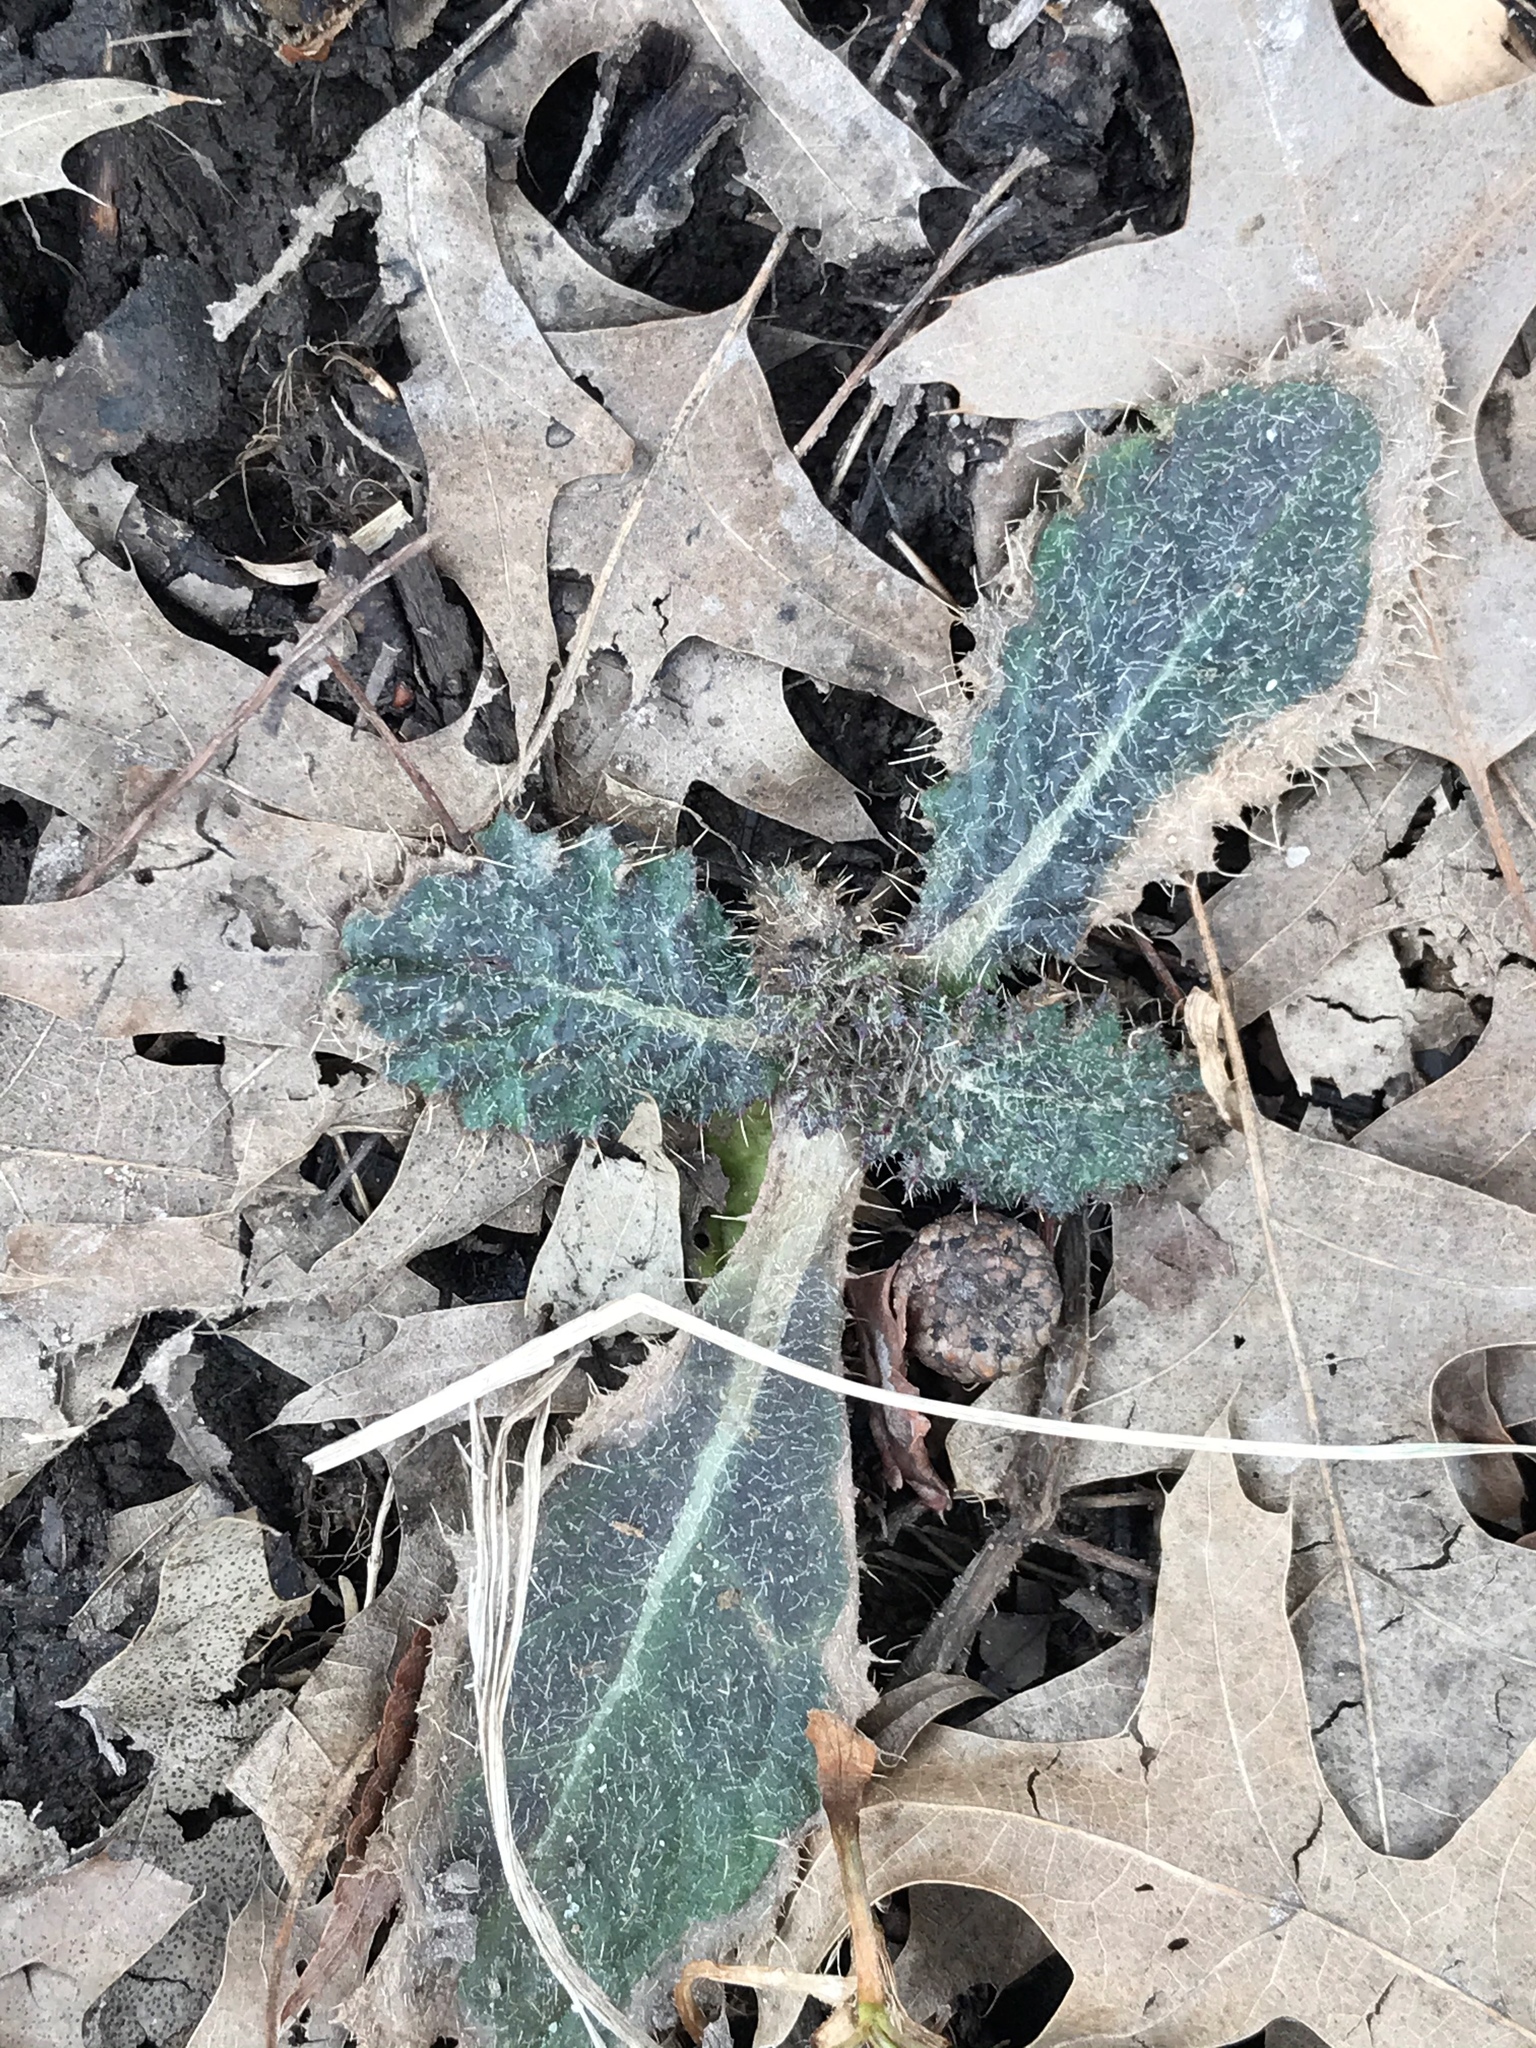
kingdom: Plantae
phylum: Tracheophyta
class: Magnoliopsida
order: Asterales
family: Asteraceae
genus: Cirsium
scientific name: Cirsium vulgare
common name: Bull thistle
